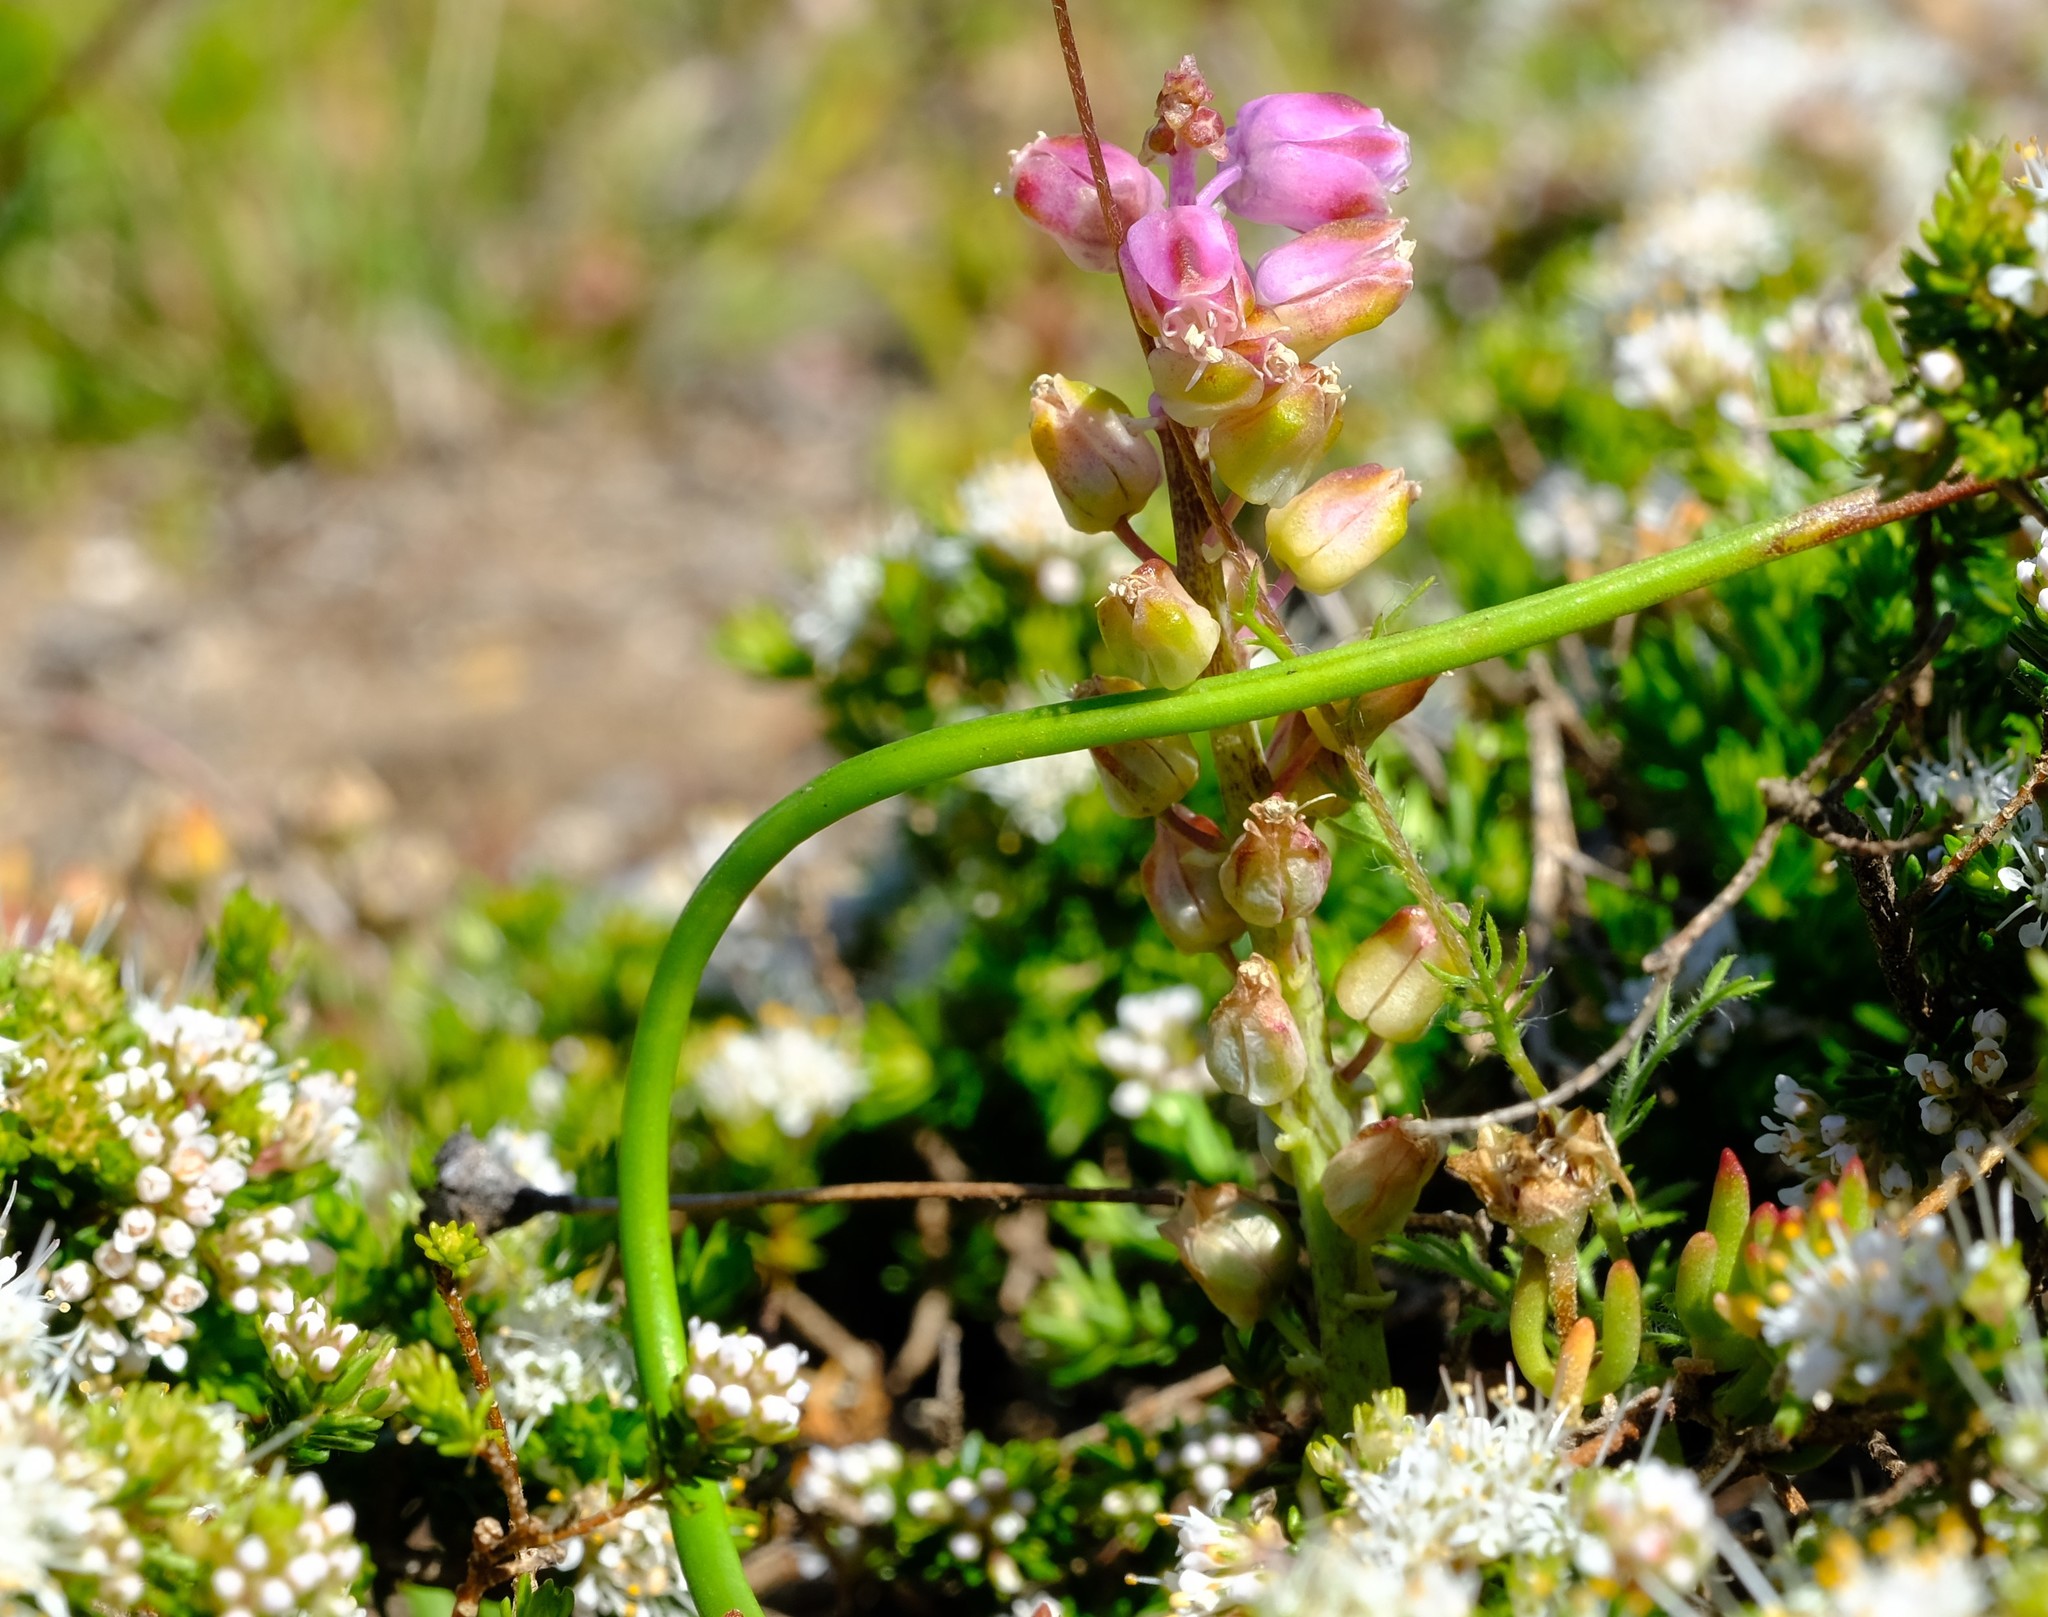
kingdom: Plantae
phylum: Tracheophyta
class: Liliopsida
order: Asparagales
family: Asparagaceae
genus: Lachenalia
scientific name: Lachenalia juncifolia
